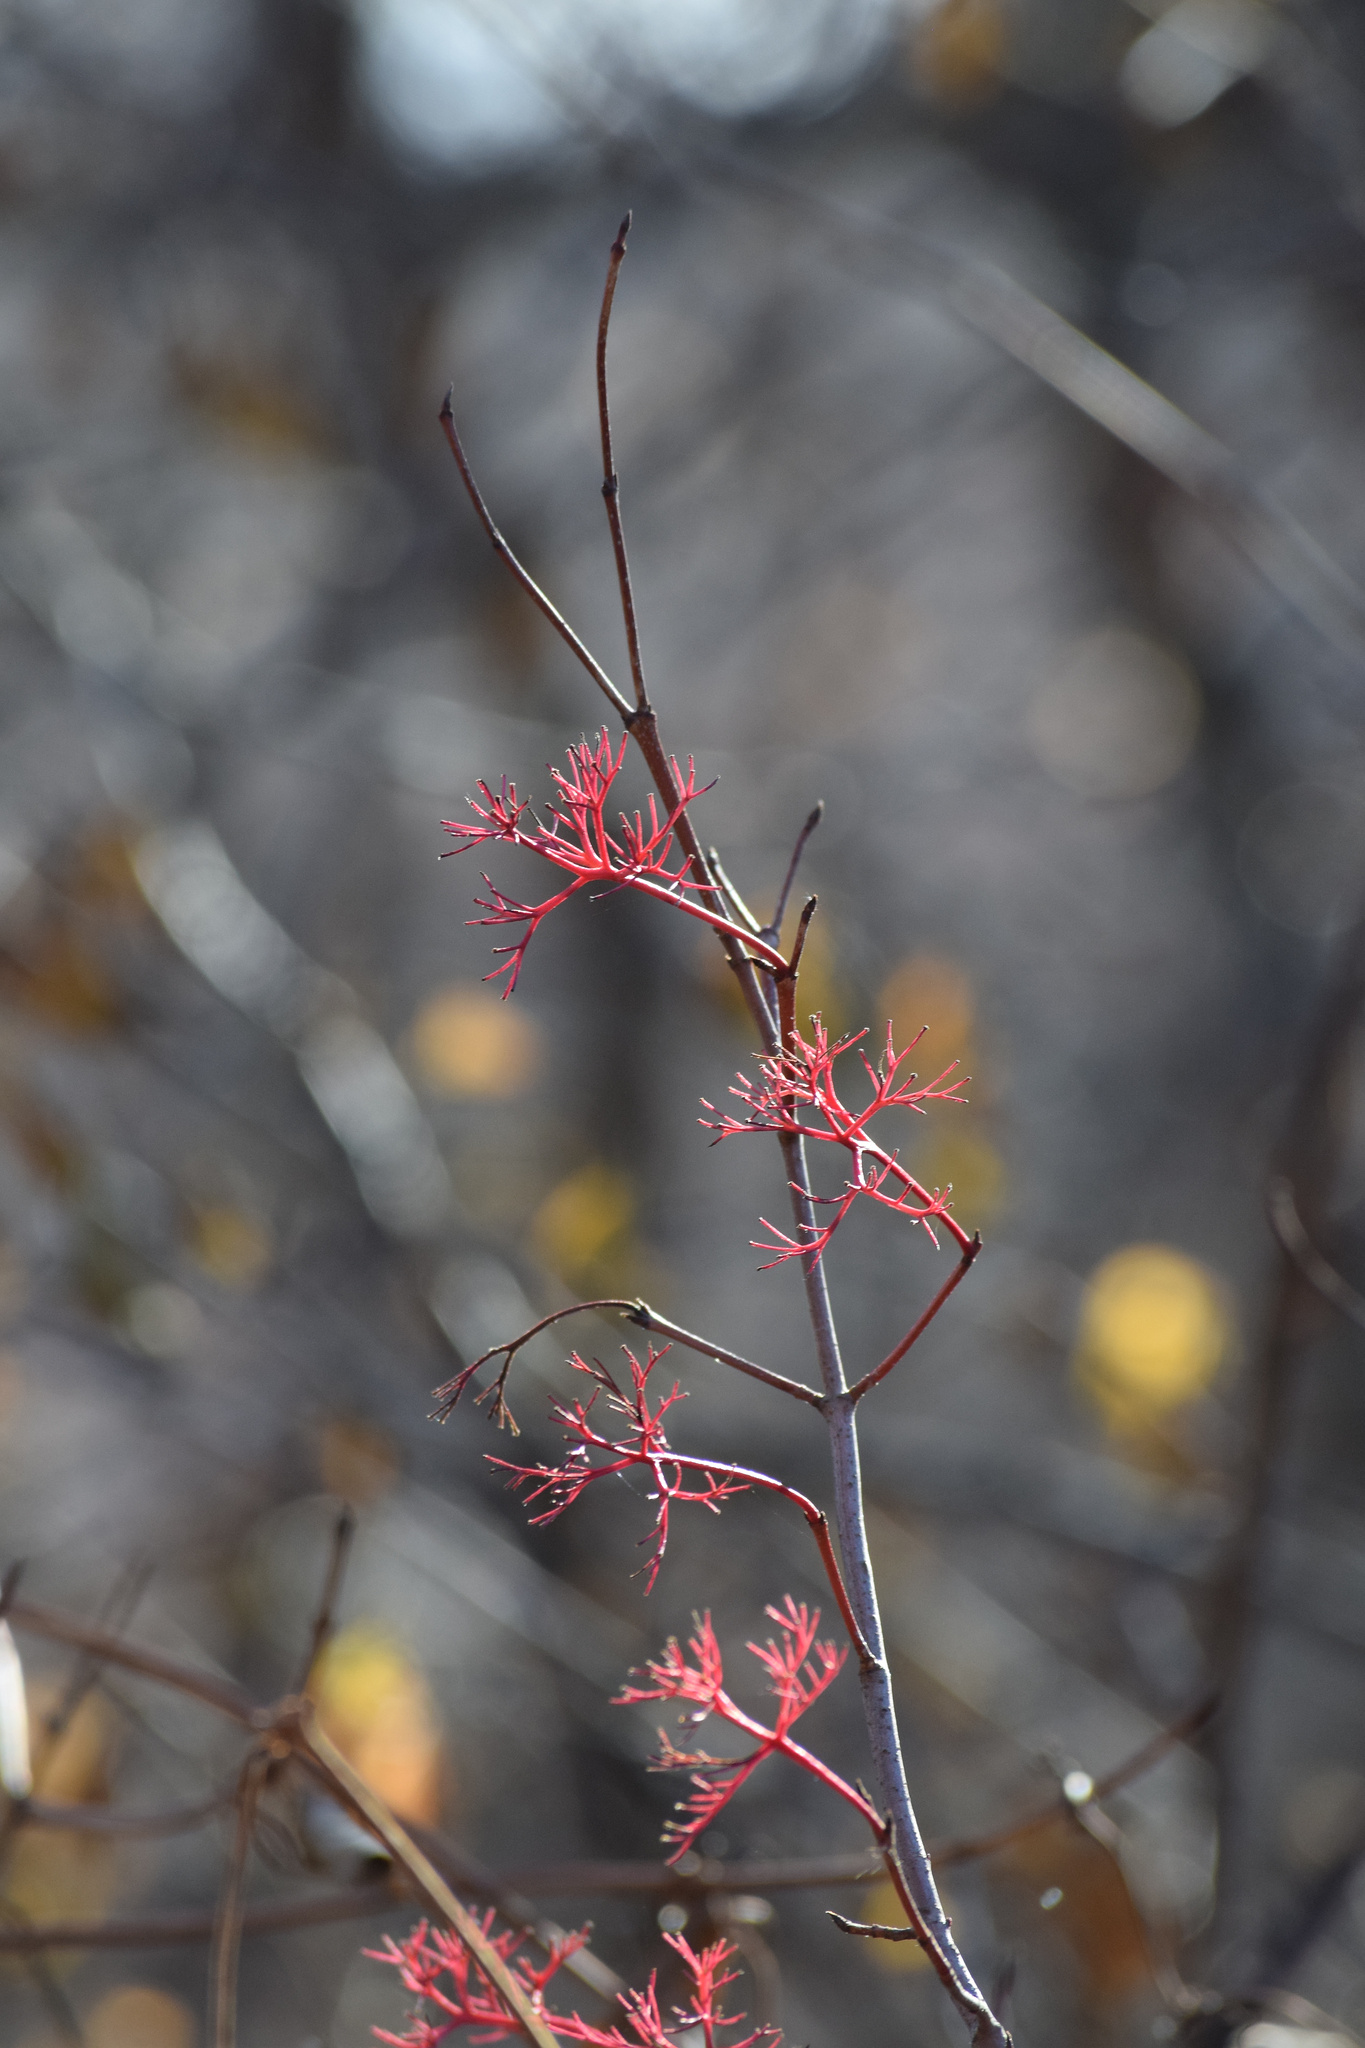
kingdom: Plantae
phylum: Tracheophyta
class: Magnoliopsida
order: Cornales
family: Cornaceae
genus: Cornus
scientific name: Cornus racemosa
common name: Panicled dogwood
